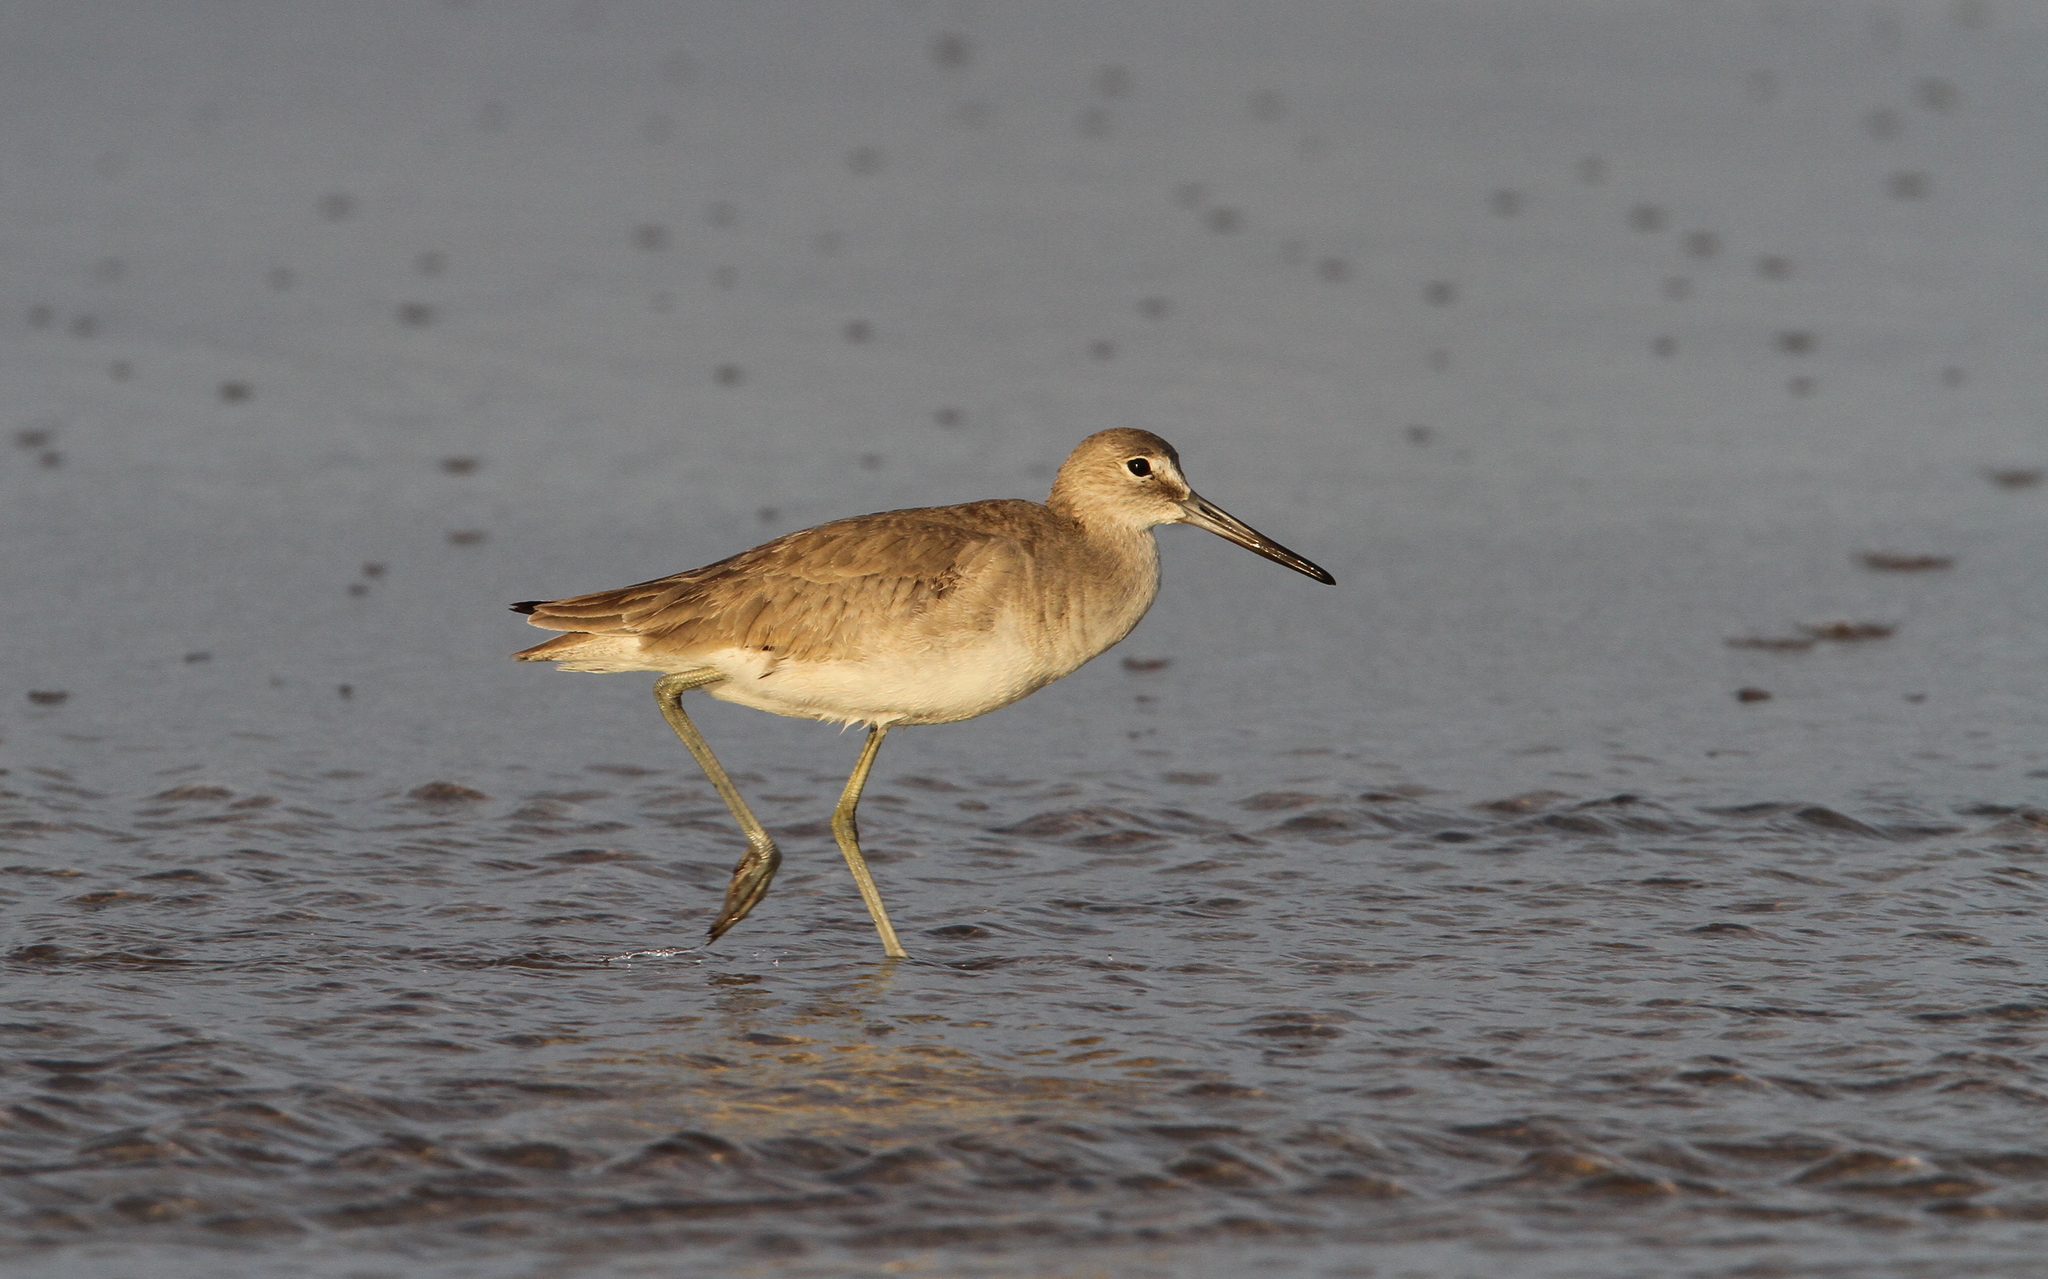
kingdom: Animalia
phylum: Chordata
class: Aves
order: Charadriiformes
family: Scolopacidae
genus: Tringa
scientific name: Tringa semipalmata
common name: Willet
